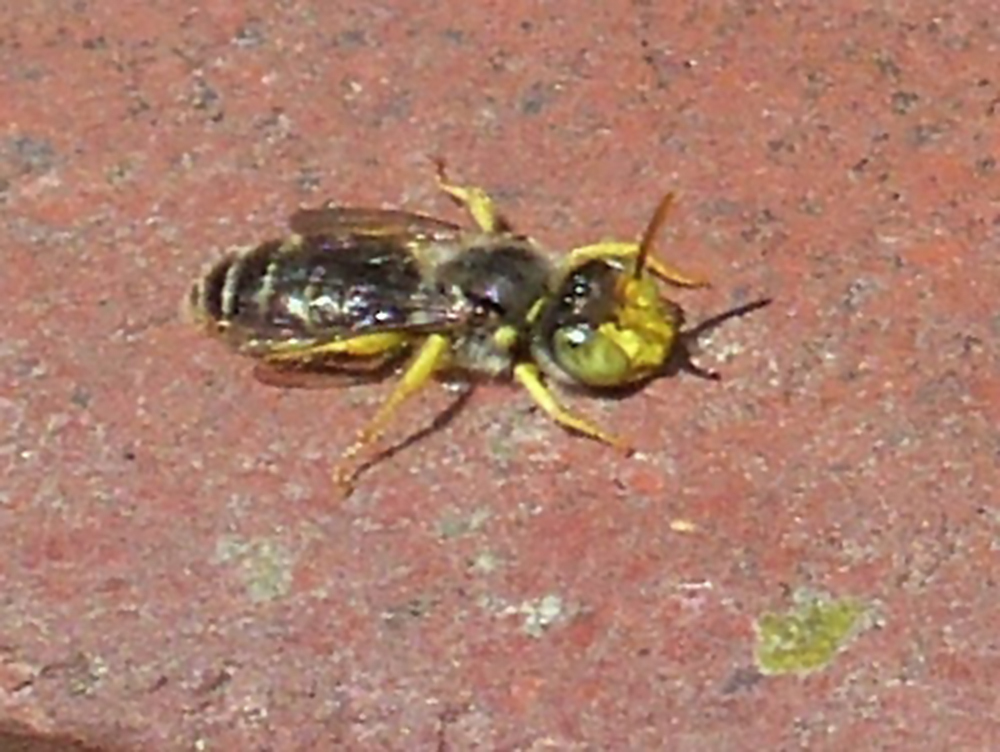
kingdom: Animalia
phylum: Arthropoda
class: Insecta
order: Hymenoptera
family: Andrenidae
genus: Calliopsis
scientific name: Calliopsis andreniformis
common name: Eastern calliopsis bee
